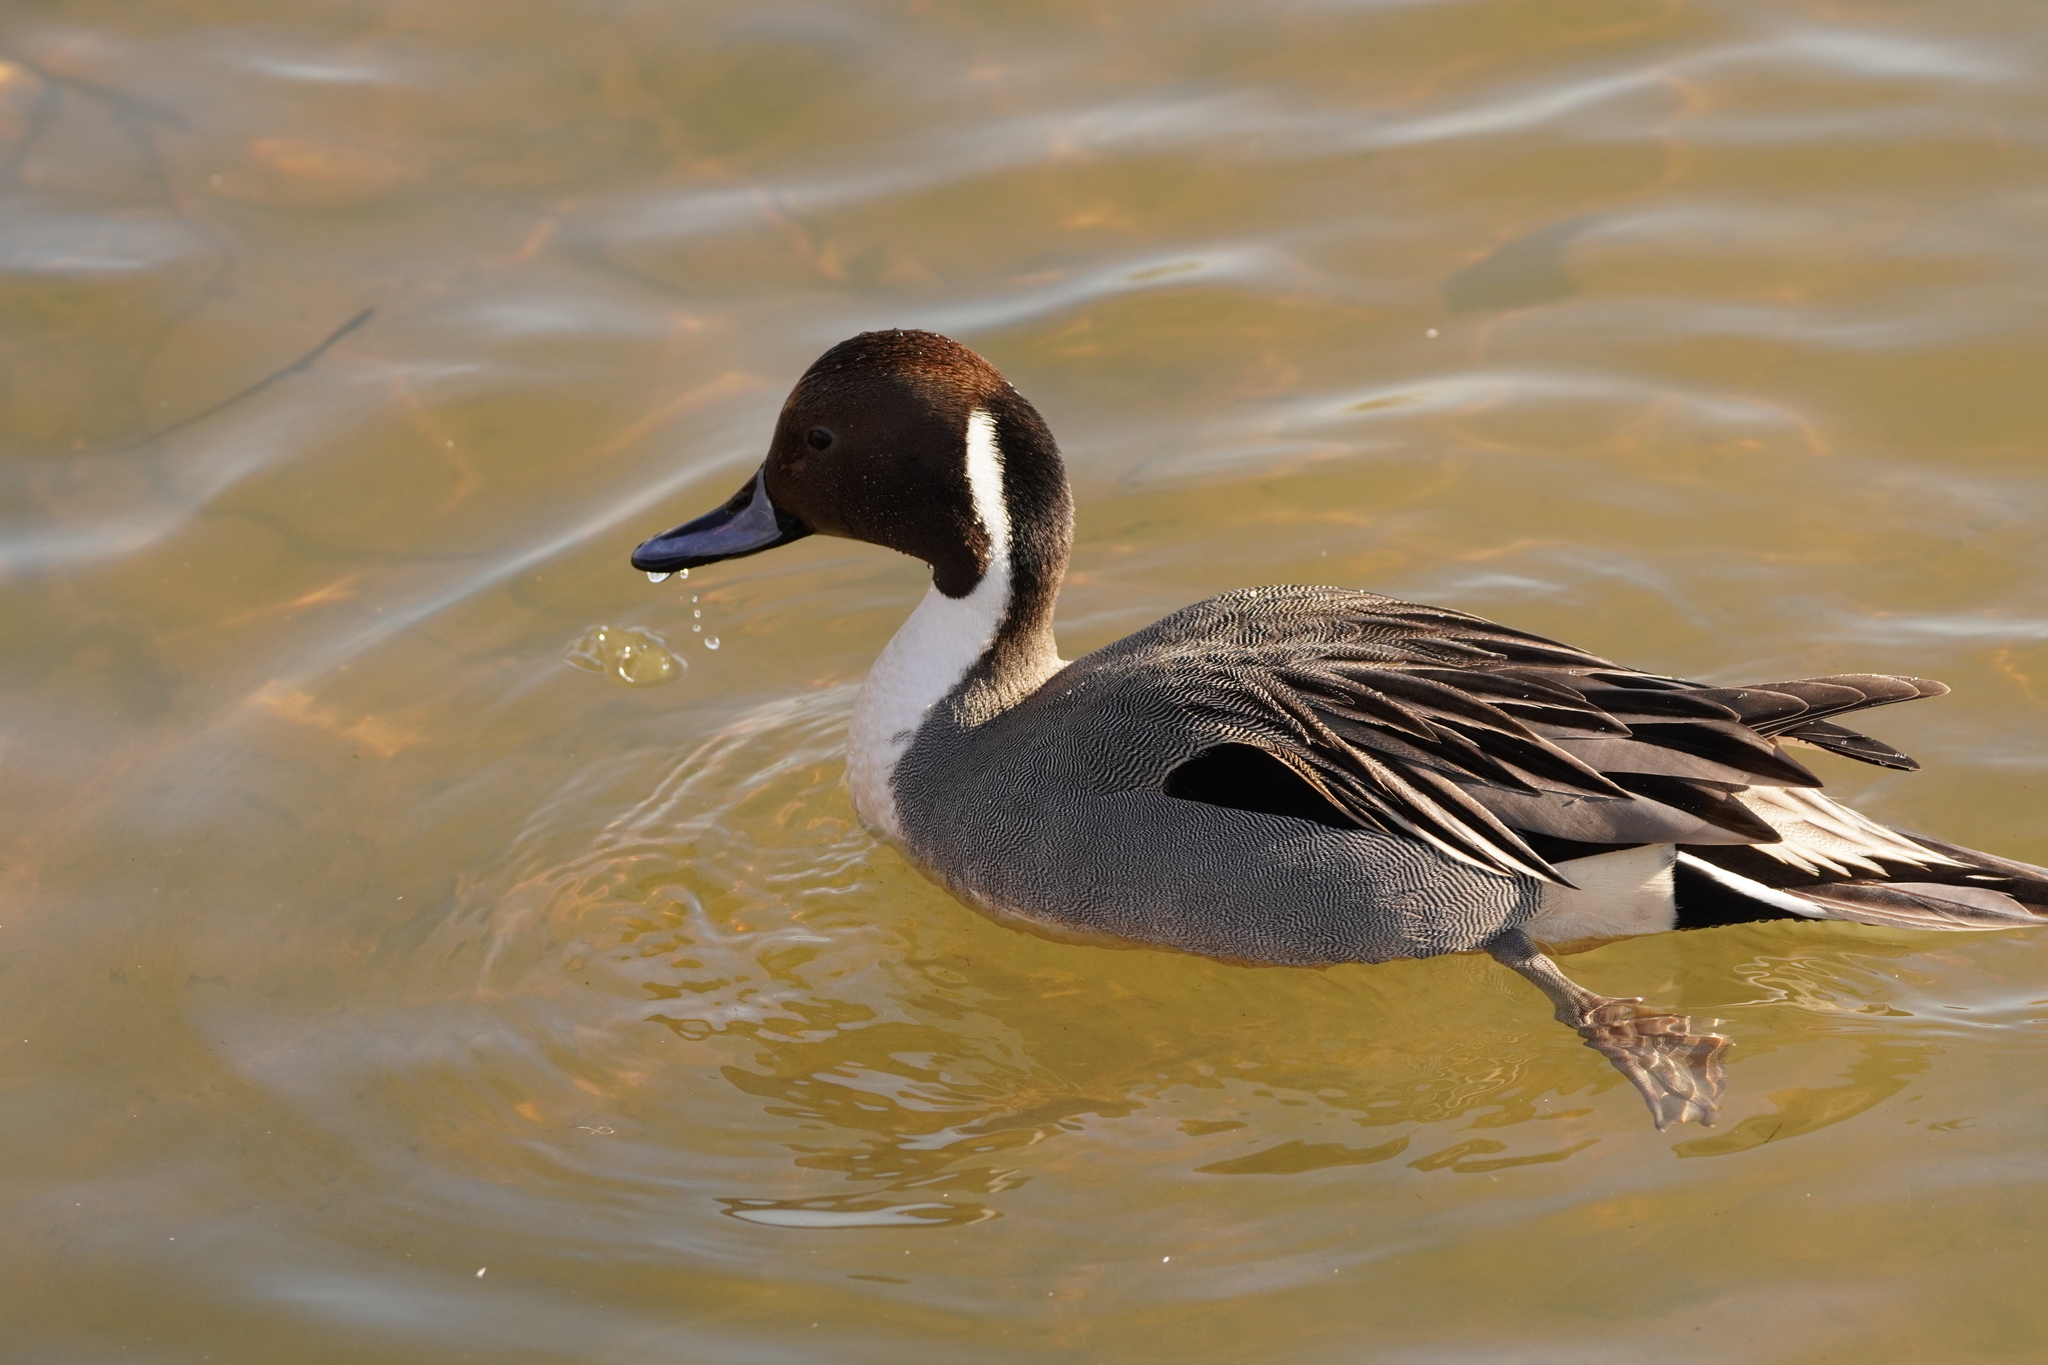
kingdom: Animalia
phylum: Chordata
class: Aves
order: Anseriformes
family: Anatidae
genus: Anas
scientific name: Anas acuta
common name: Northern pintail
